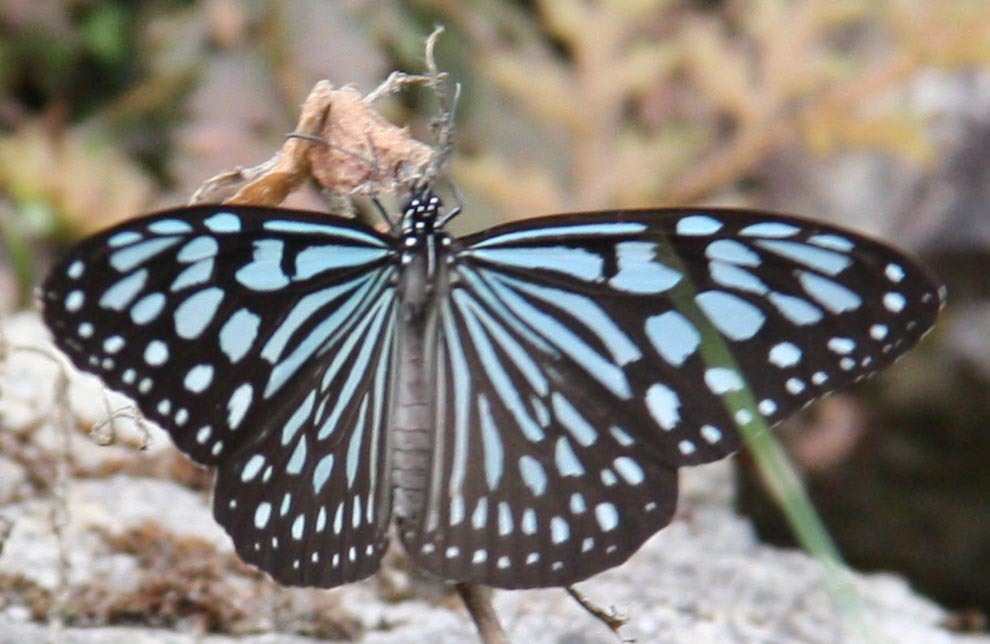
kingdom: Animalia
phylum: Arthropoda
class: Insecta
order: Lepidoptera
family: Nymphalidae
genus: Ideopsis
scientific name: Ideopsis similis
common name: Ceylon blue glassy tiger
